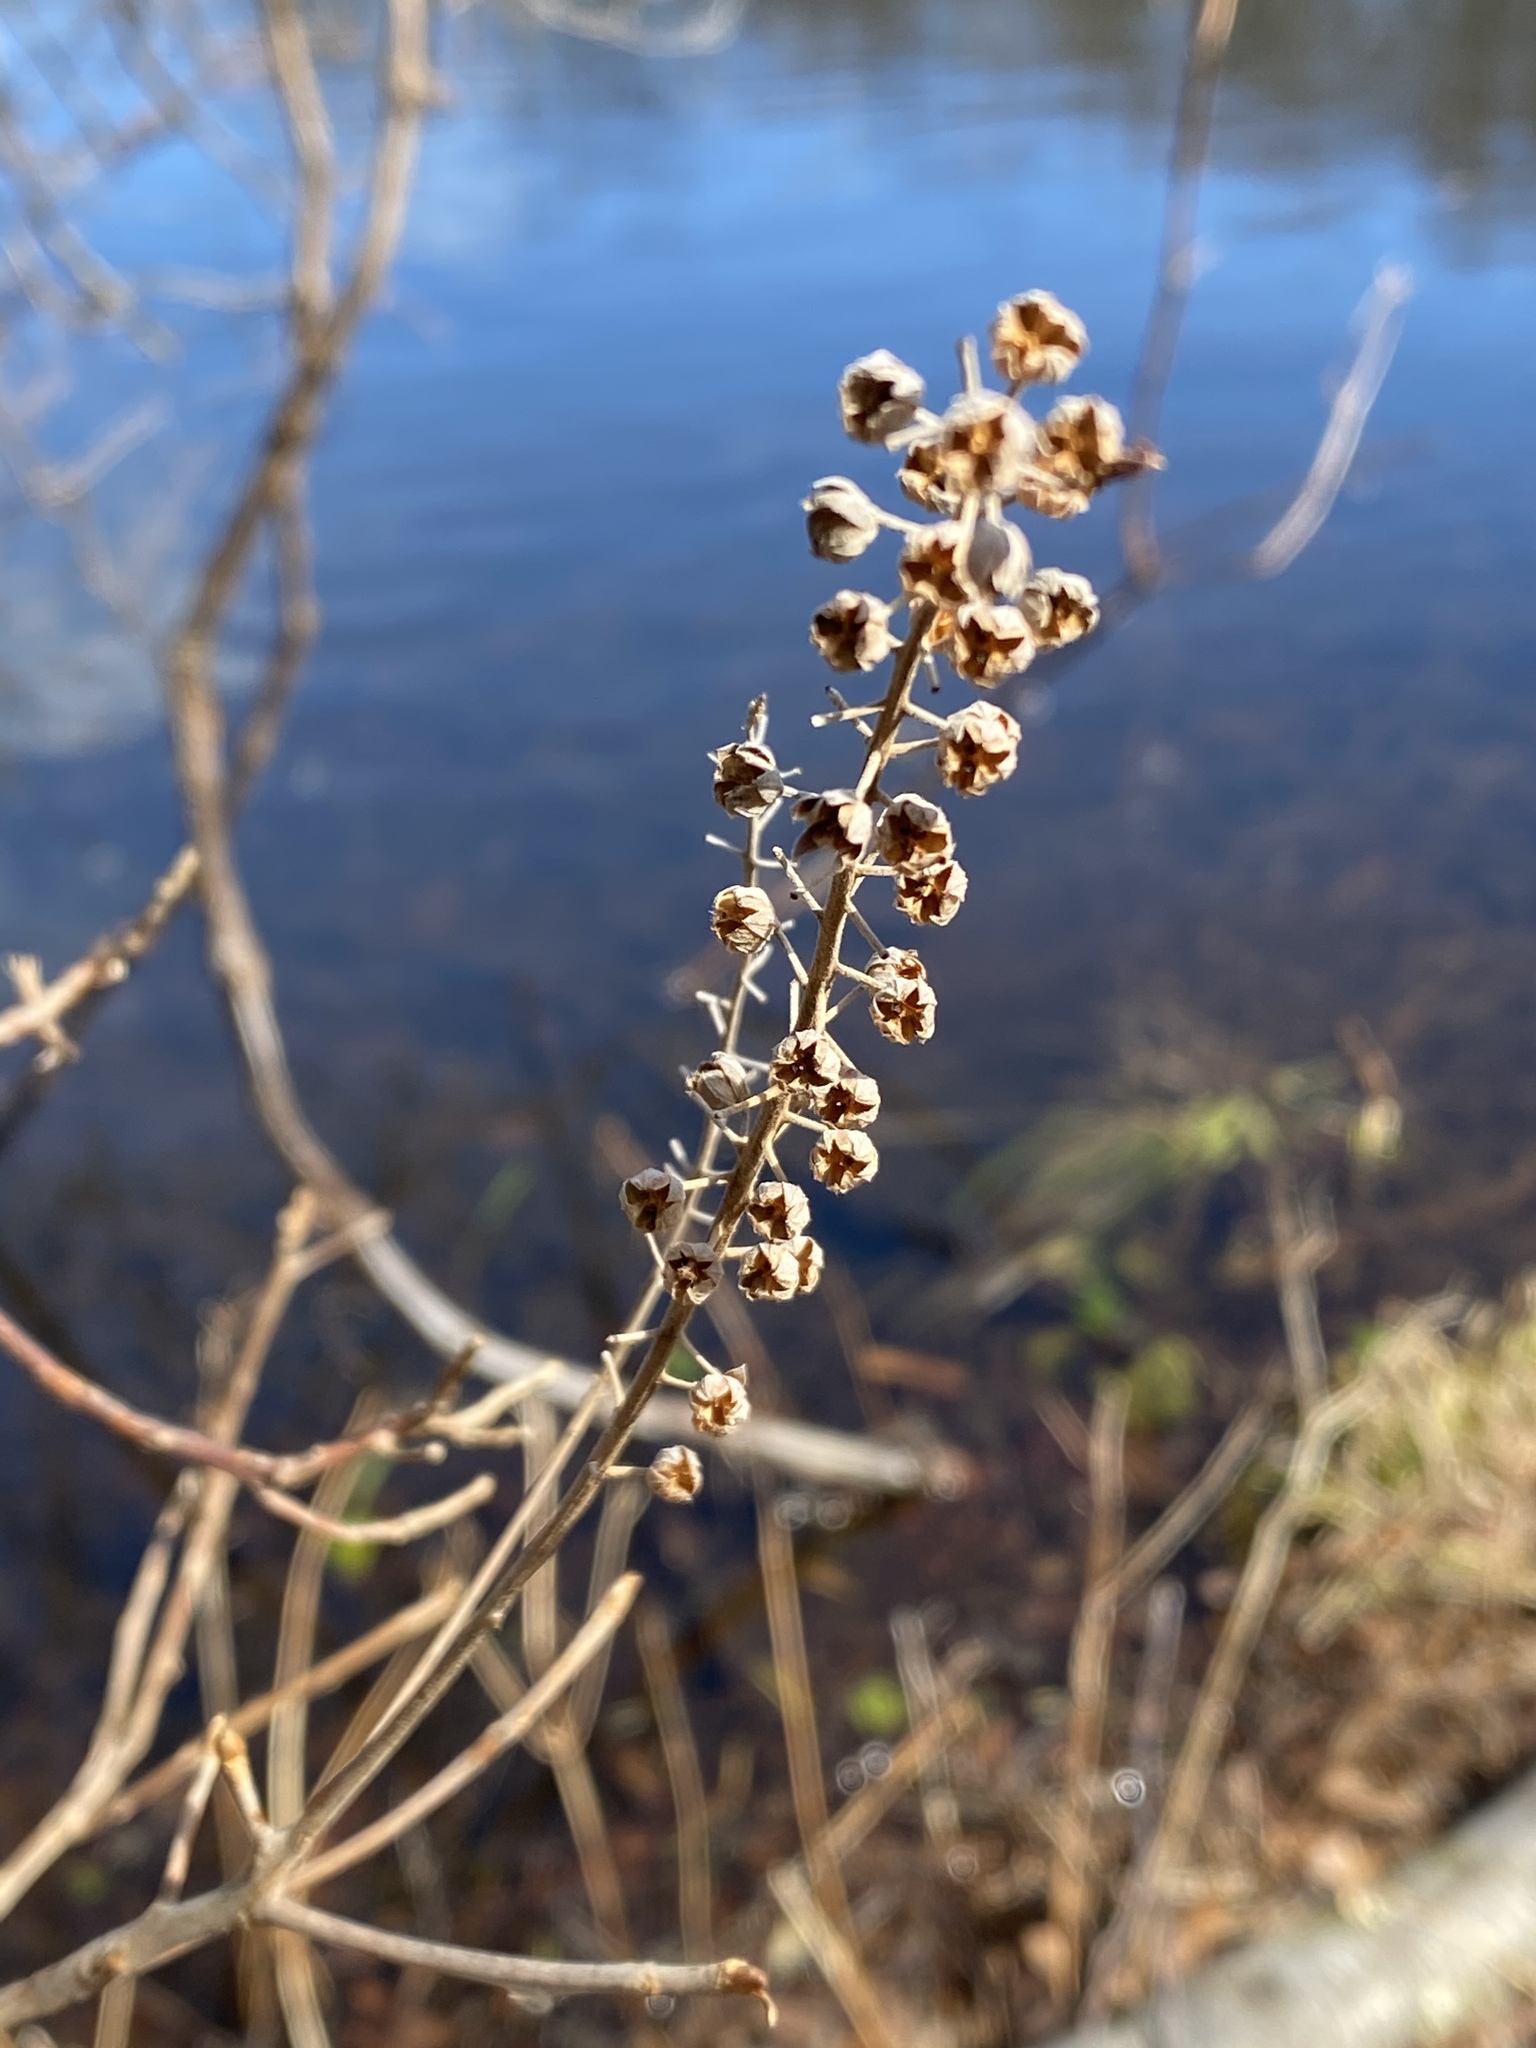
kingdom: Plantae
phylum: Tracheophyta
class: Magnoliopsida
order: Ericales
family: Clethraceae
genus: Clethra
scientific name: Clethra alnifolia
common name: Sweet pepperbush
